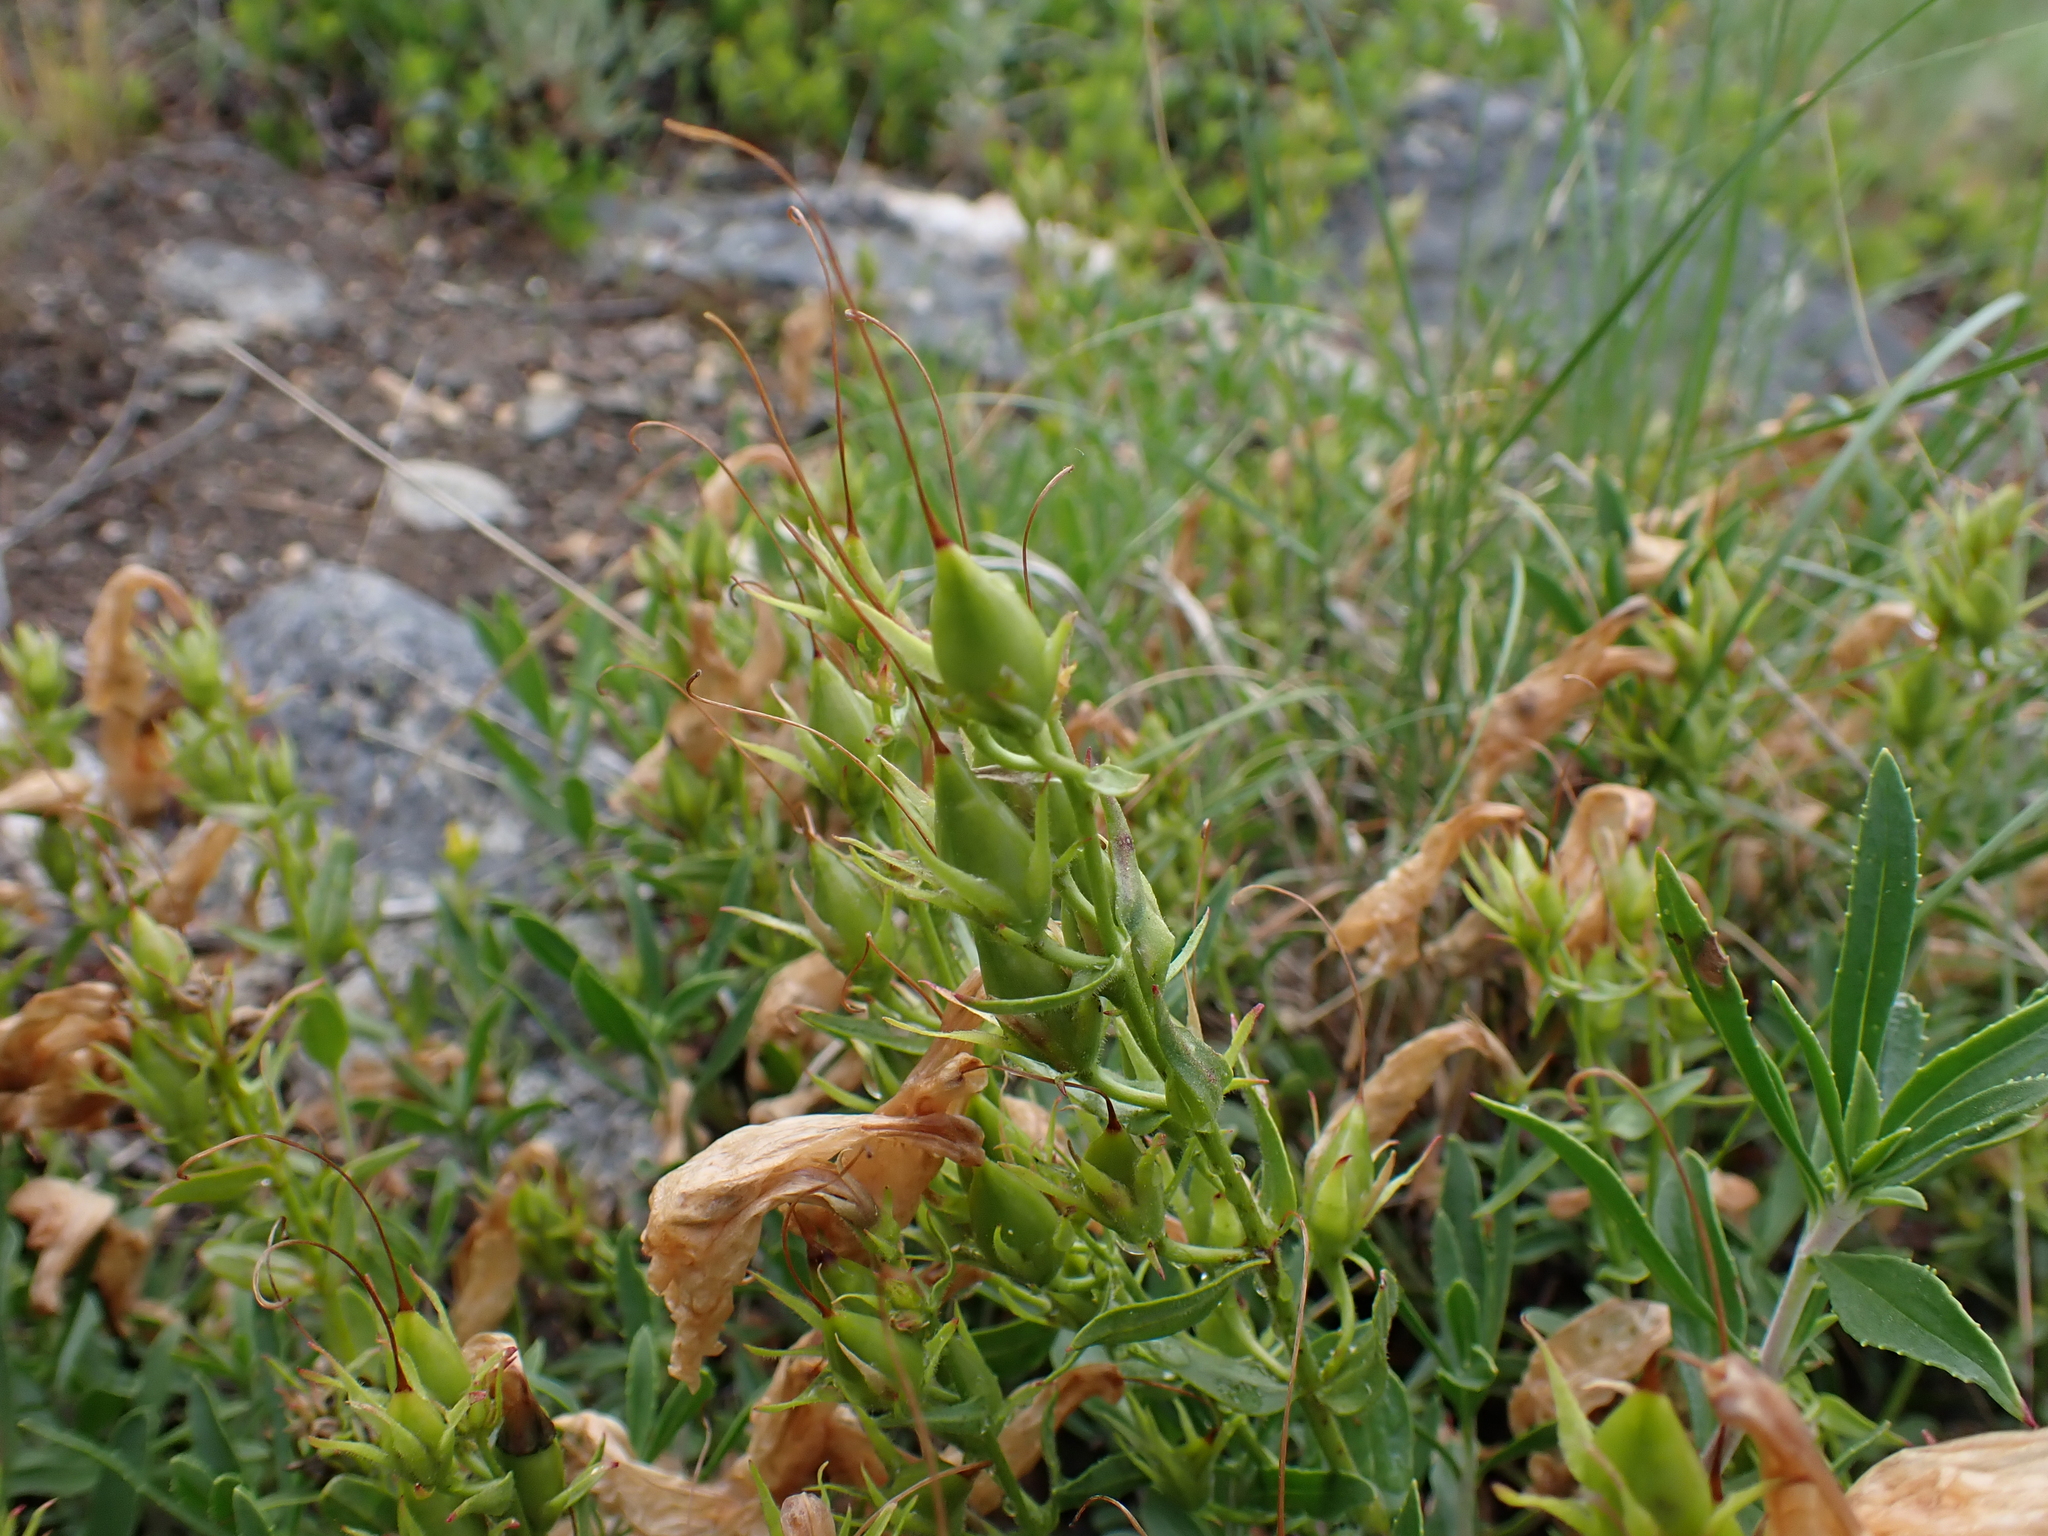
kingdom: Plantae
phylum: Tracheophyta
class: Magnoliopsida
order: Lamiales
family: Plantaginaceae
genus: Penstemon
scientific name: Penstemon fruticosus
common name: Bush penstemon
